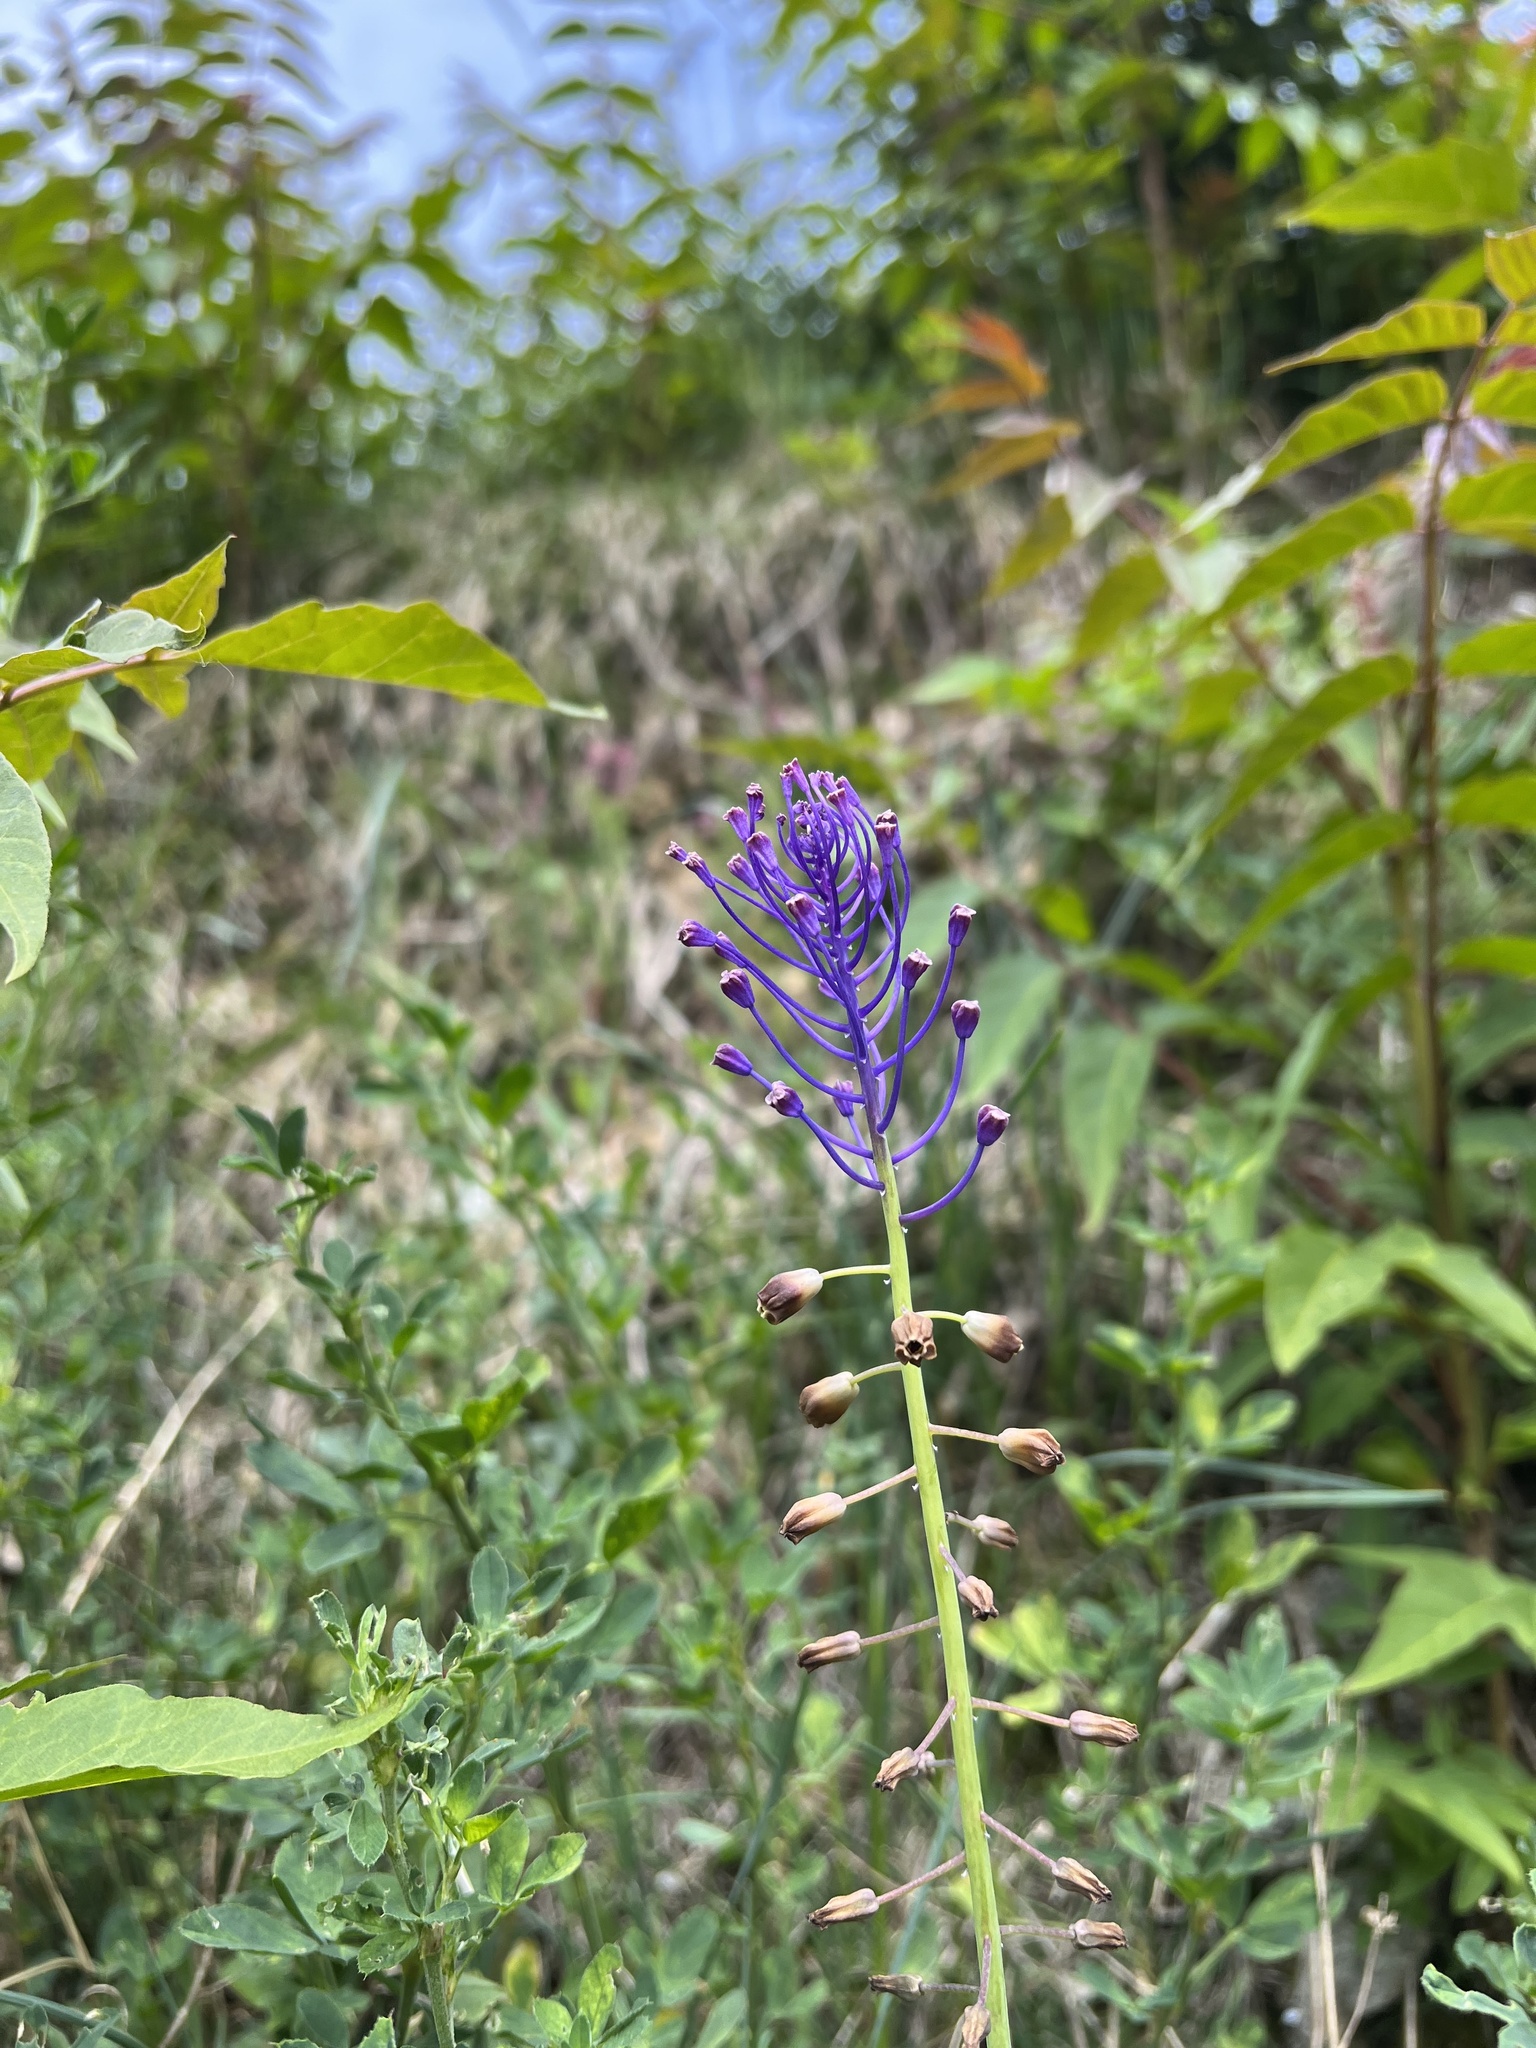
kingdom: Plantae
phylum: Tracheophyta
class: Liliopsida
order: Asparagales
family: Asparagaceae
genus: Muscari
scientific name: Muscari comosum
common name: Tassel hyacinth
